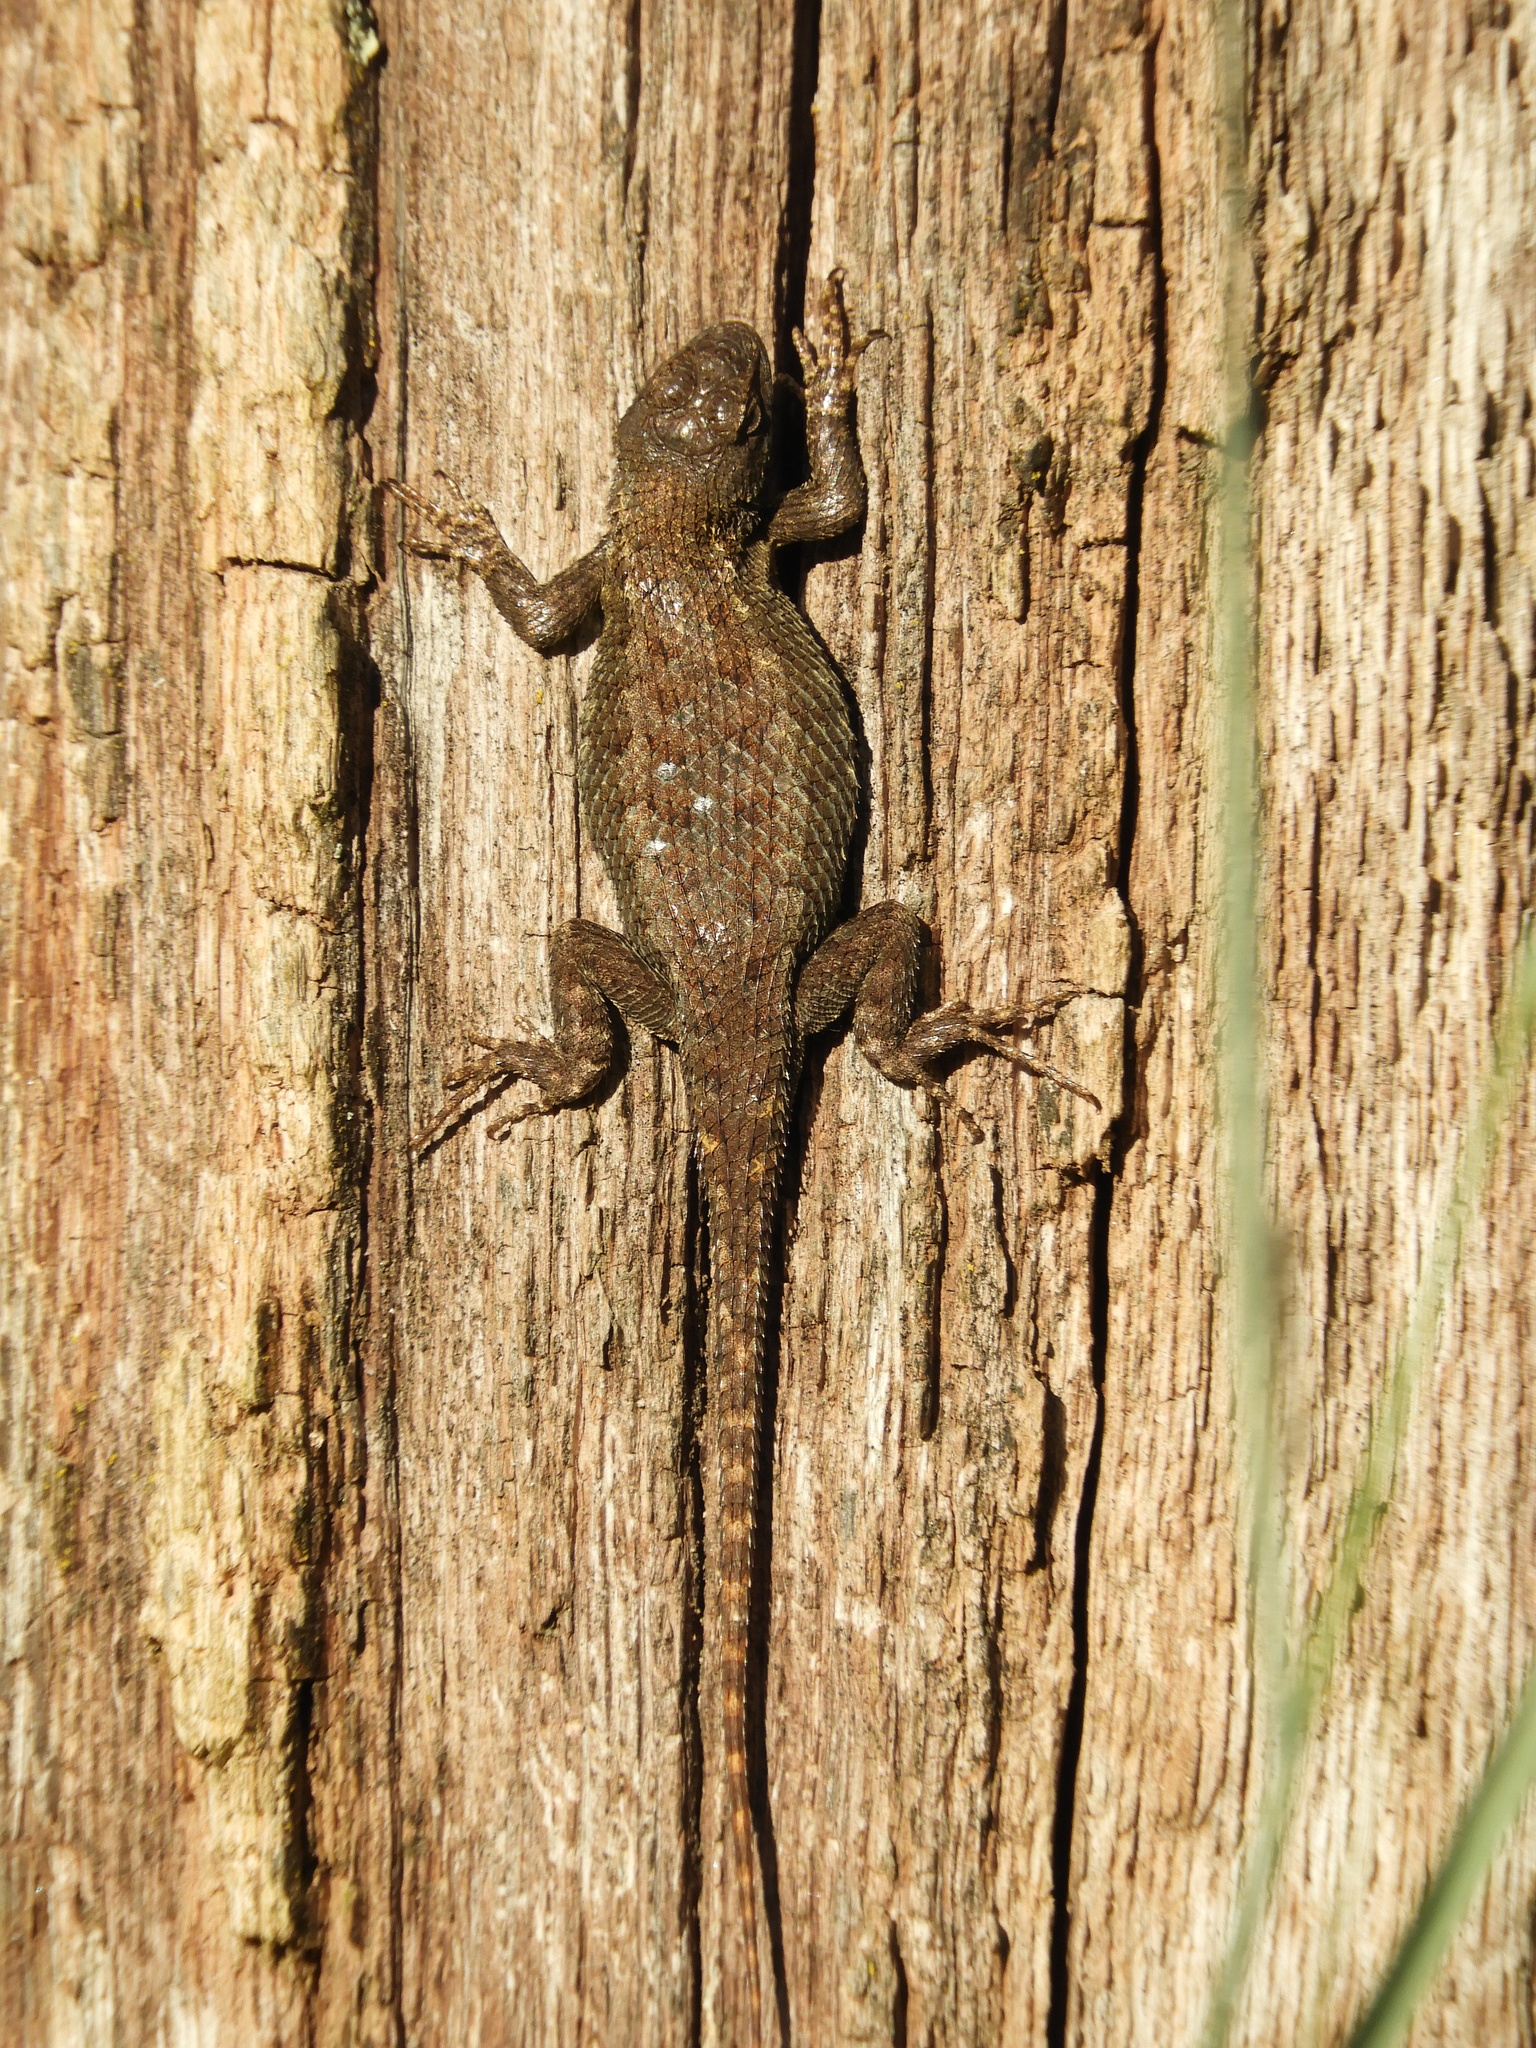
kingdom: Animalia
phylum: Chordata
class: Squamata
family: Phrynosomatidae
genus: Sceloporus
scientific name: Sceloporus occidentalis
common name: Western fence lizard
